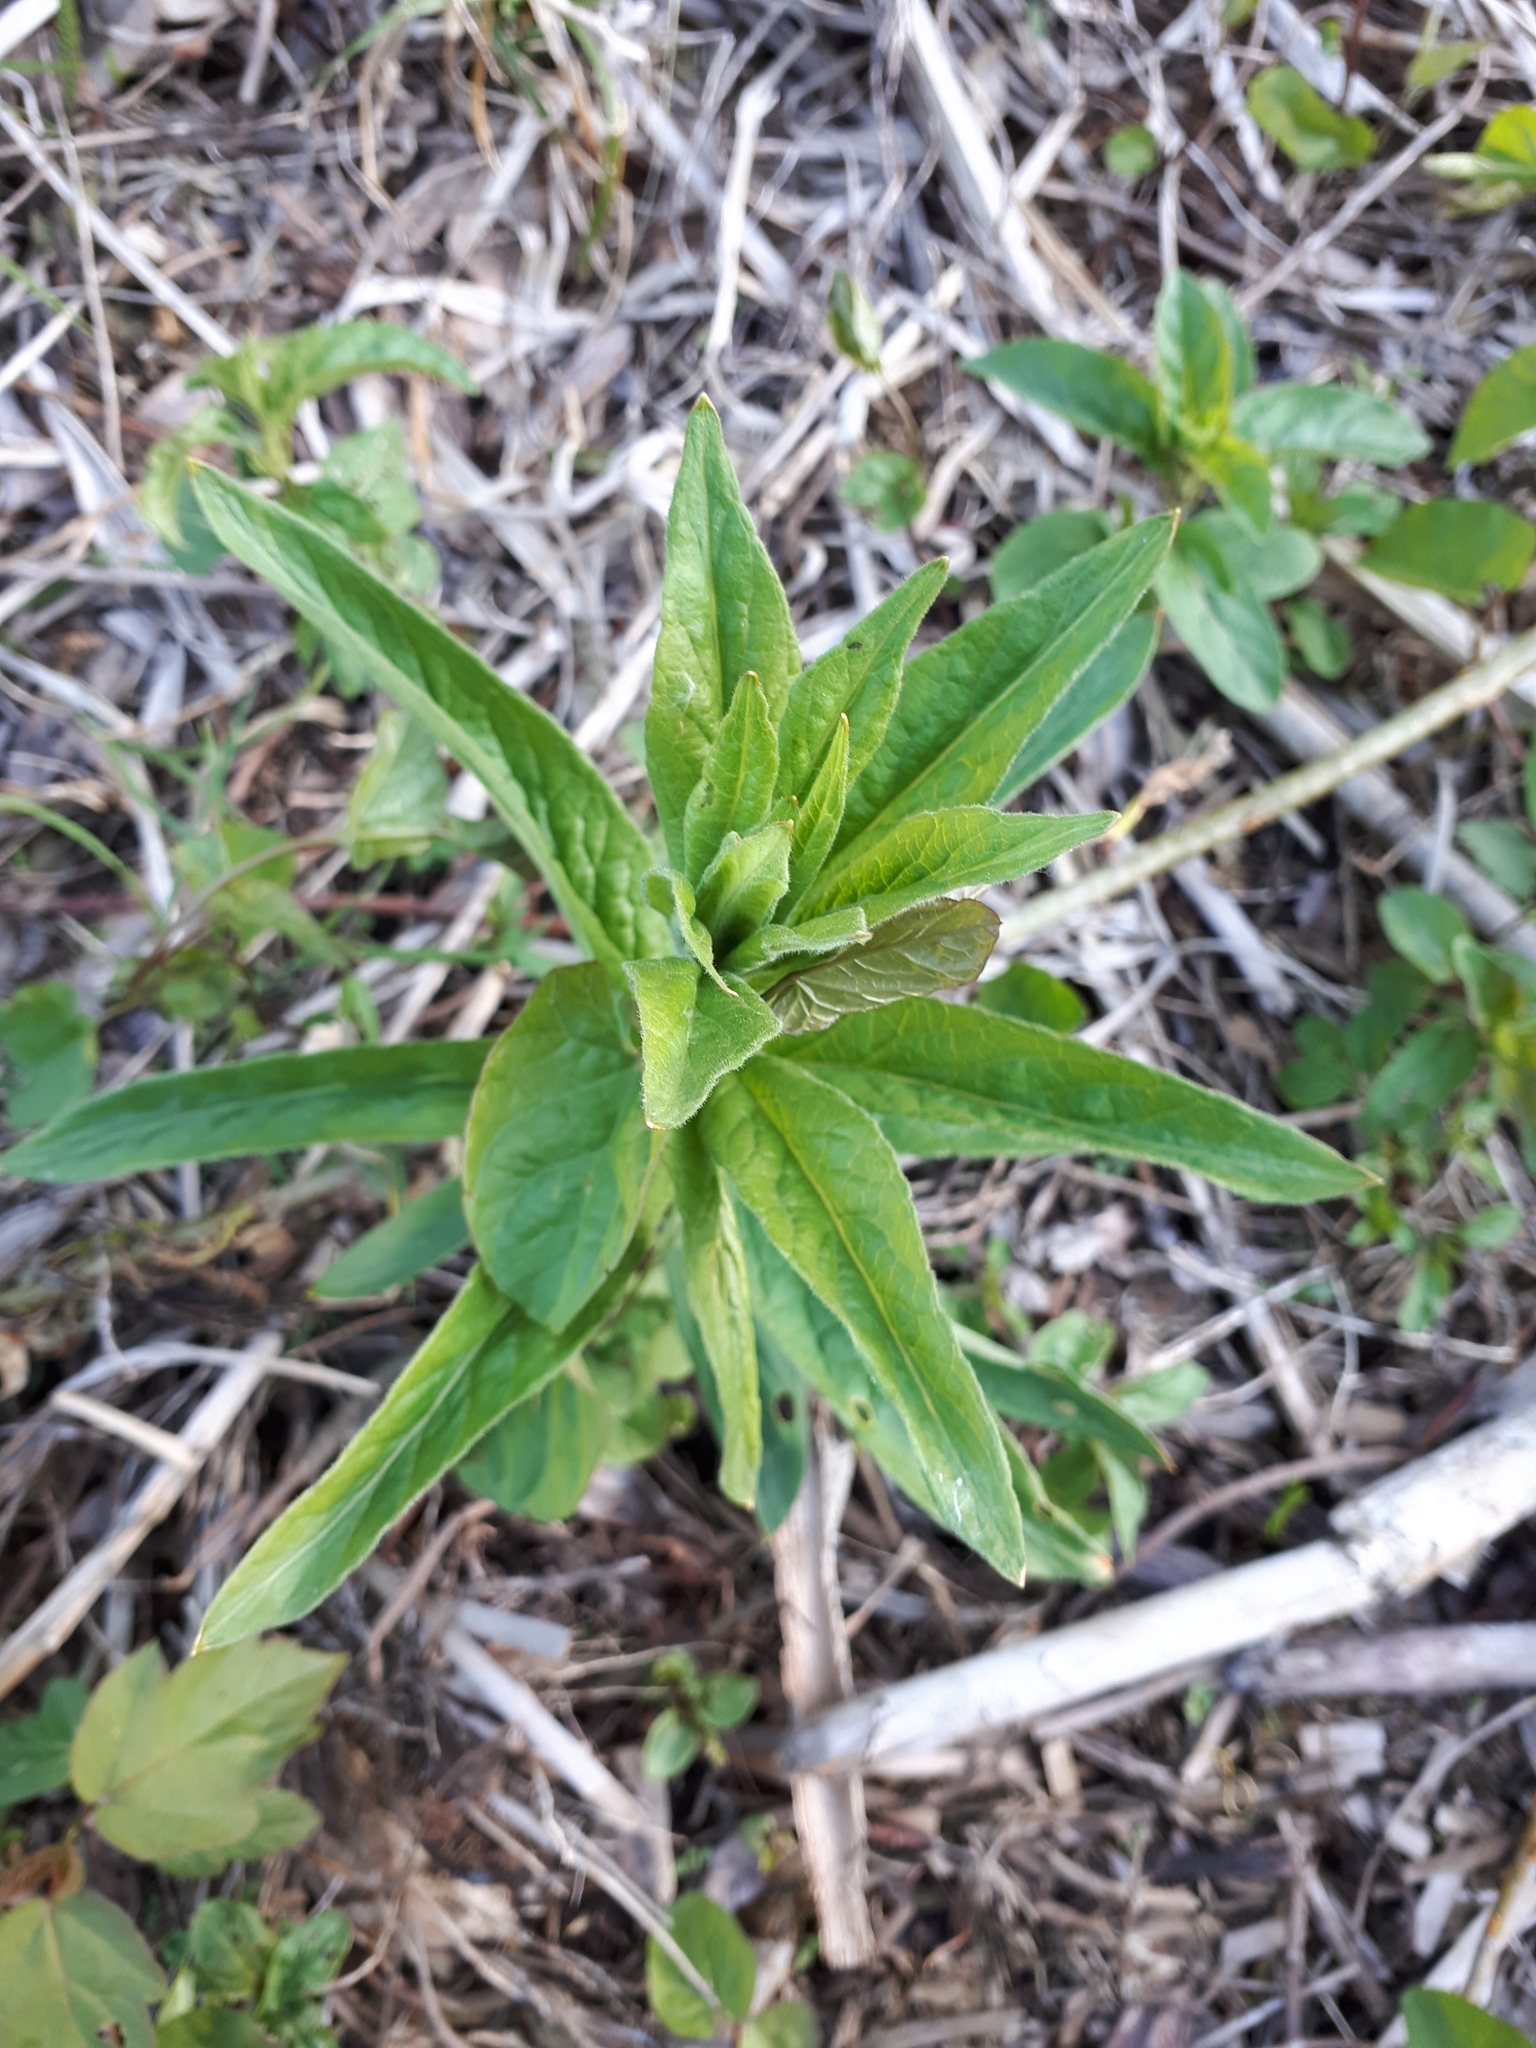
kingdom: Plantae
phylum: Tracheophyta
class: Magnoliopsida
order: Ericales
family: Primulaceae
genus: Lysimachia
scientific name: Lysimachia vulgaris
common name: Yellow loosestrife
